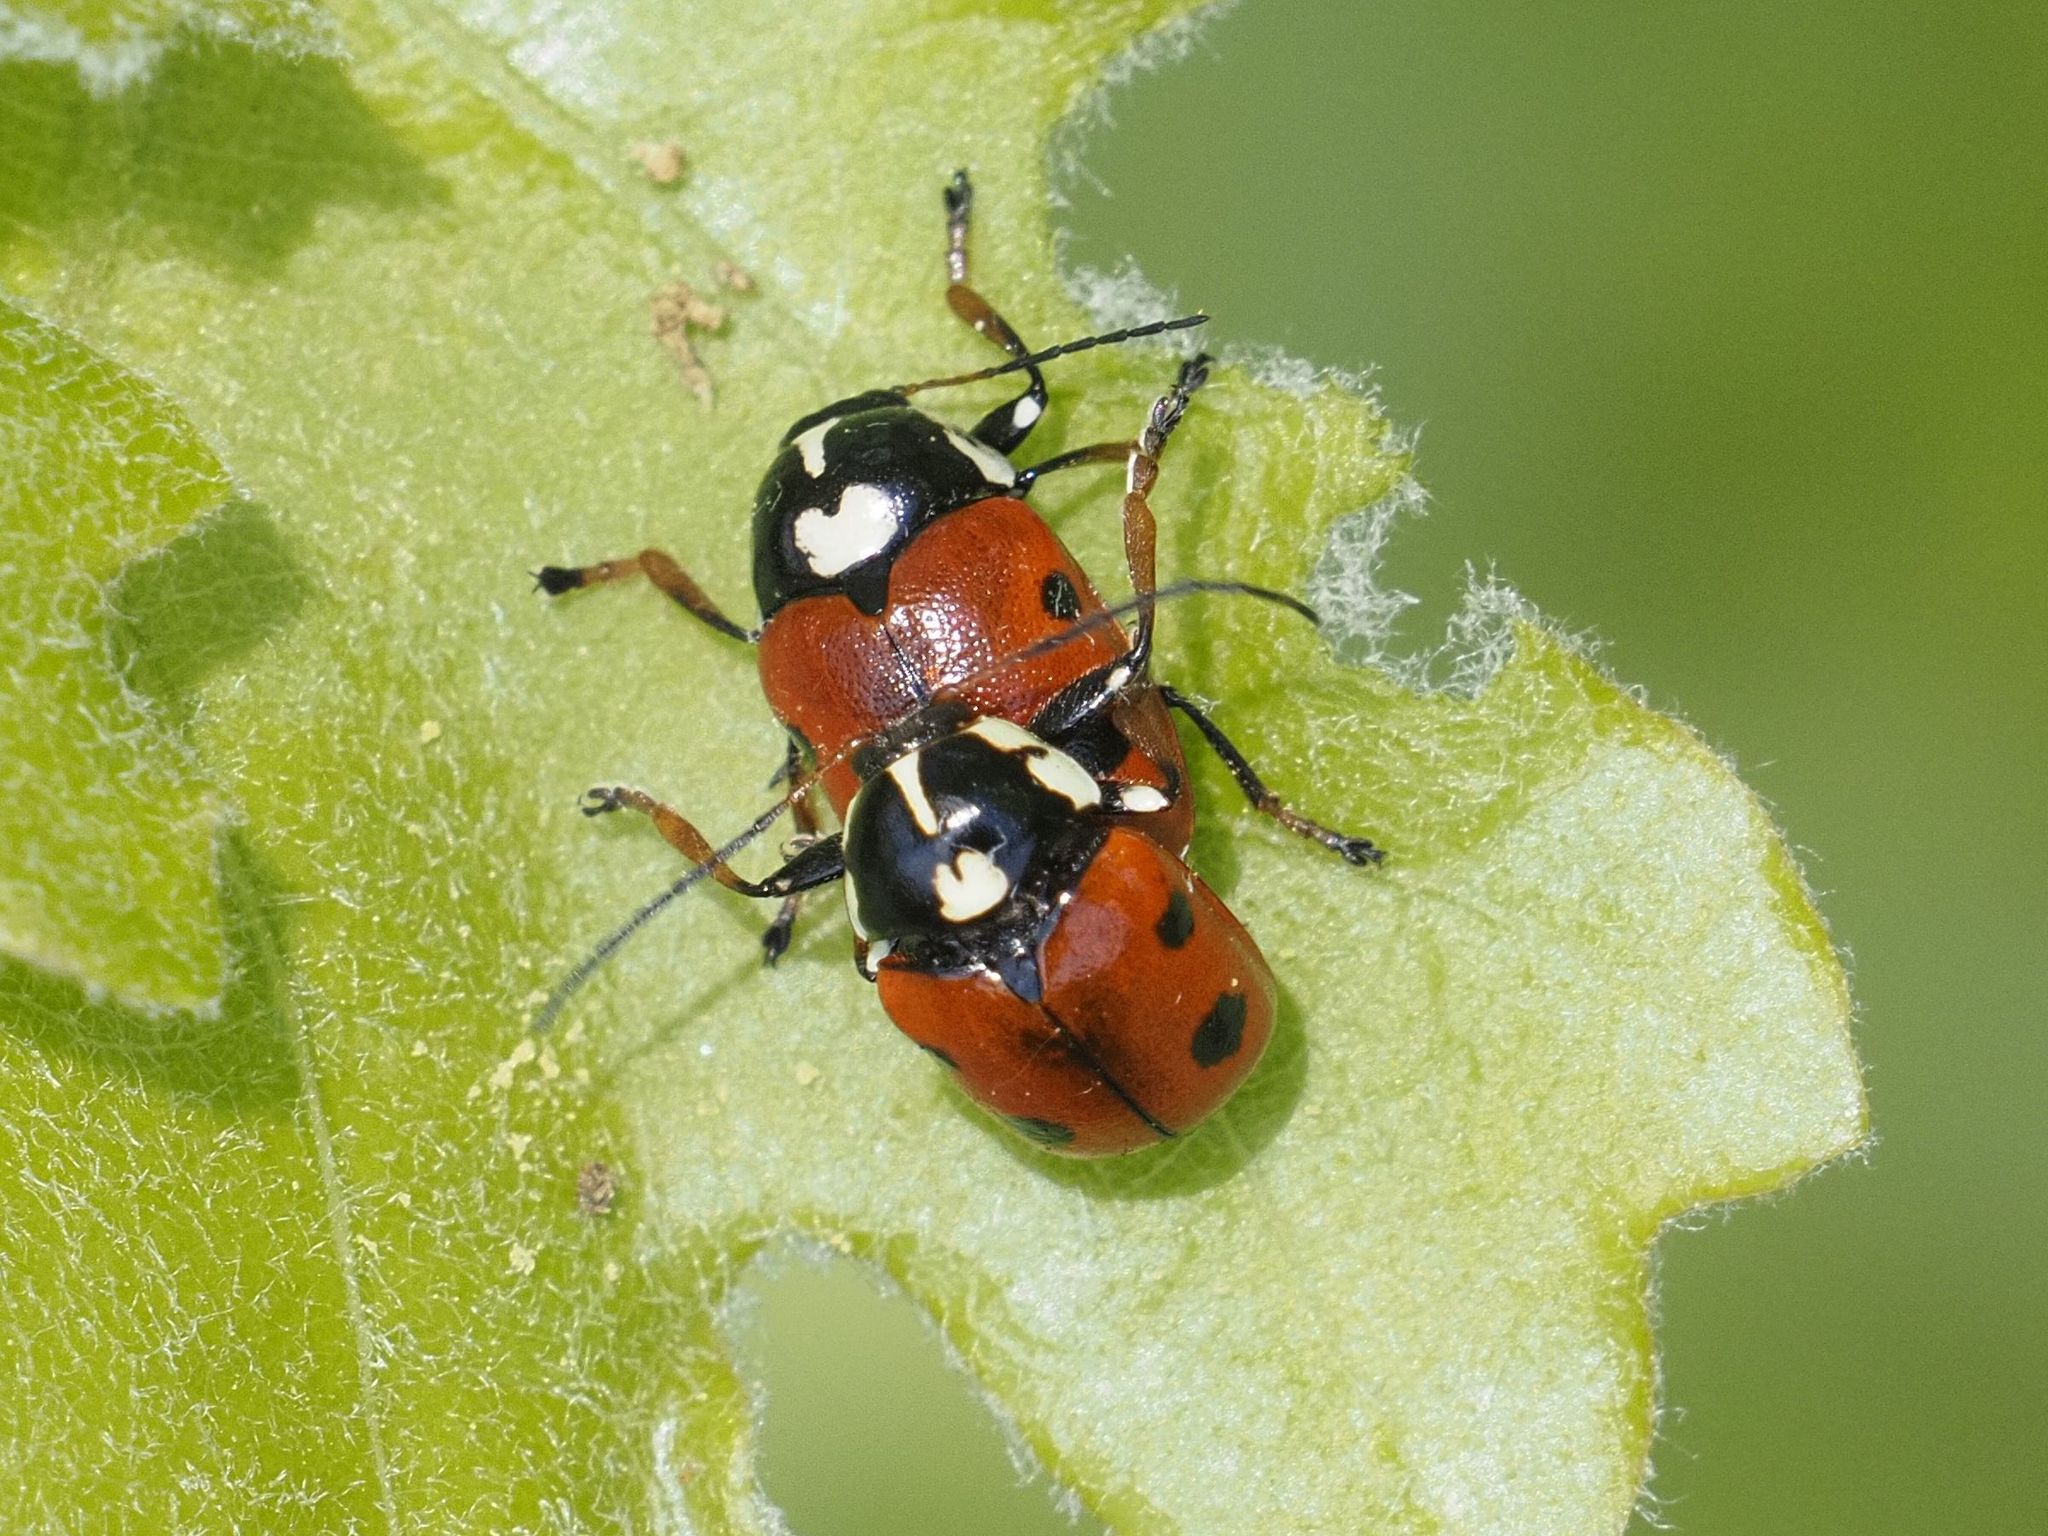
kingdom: Animalia
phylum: Arthropoda
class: Insecta
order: Coleoptera
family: Chrysomelidae
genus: Cryptocephalus
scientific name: Cryptocephalus cordiger
